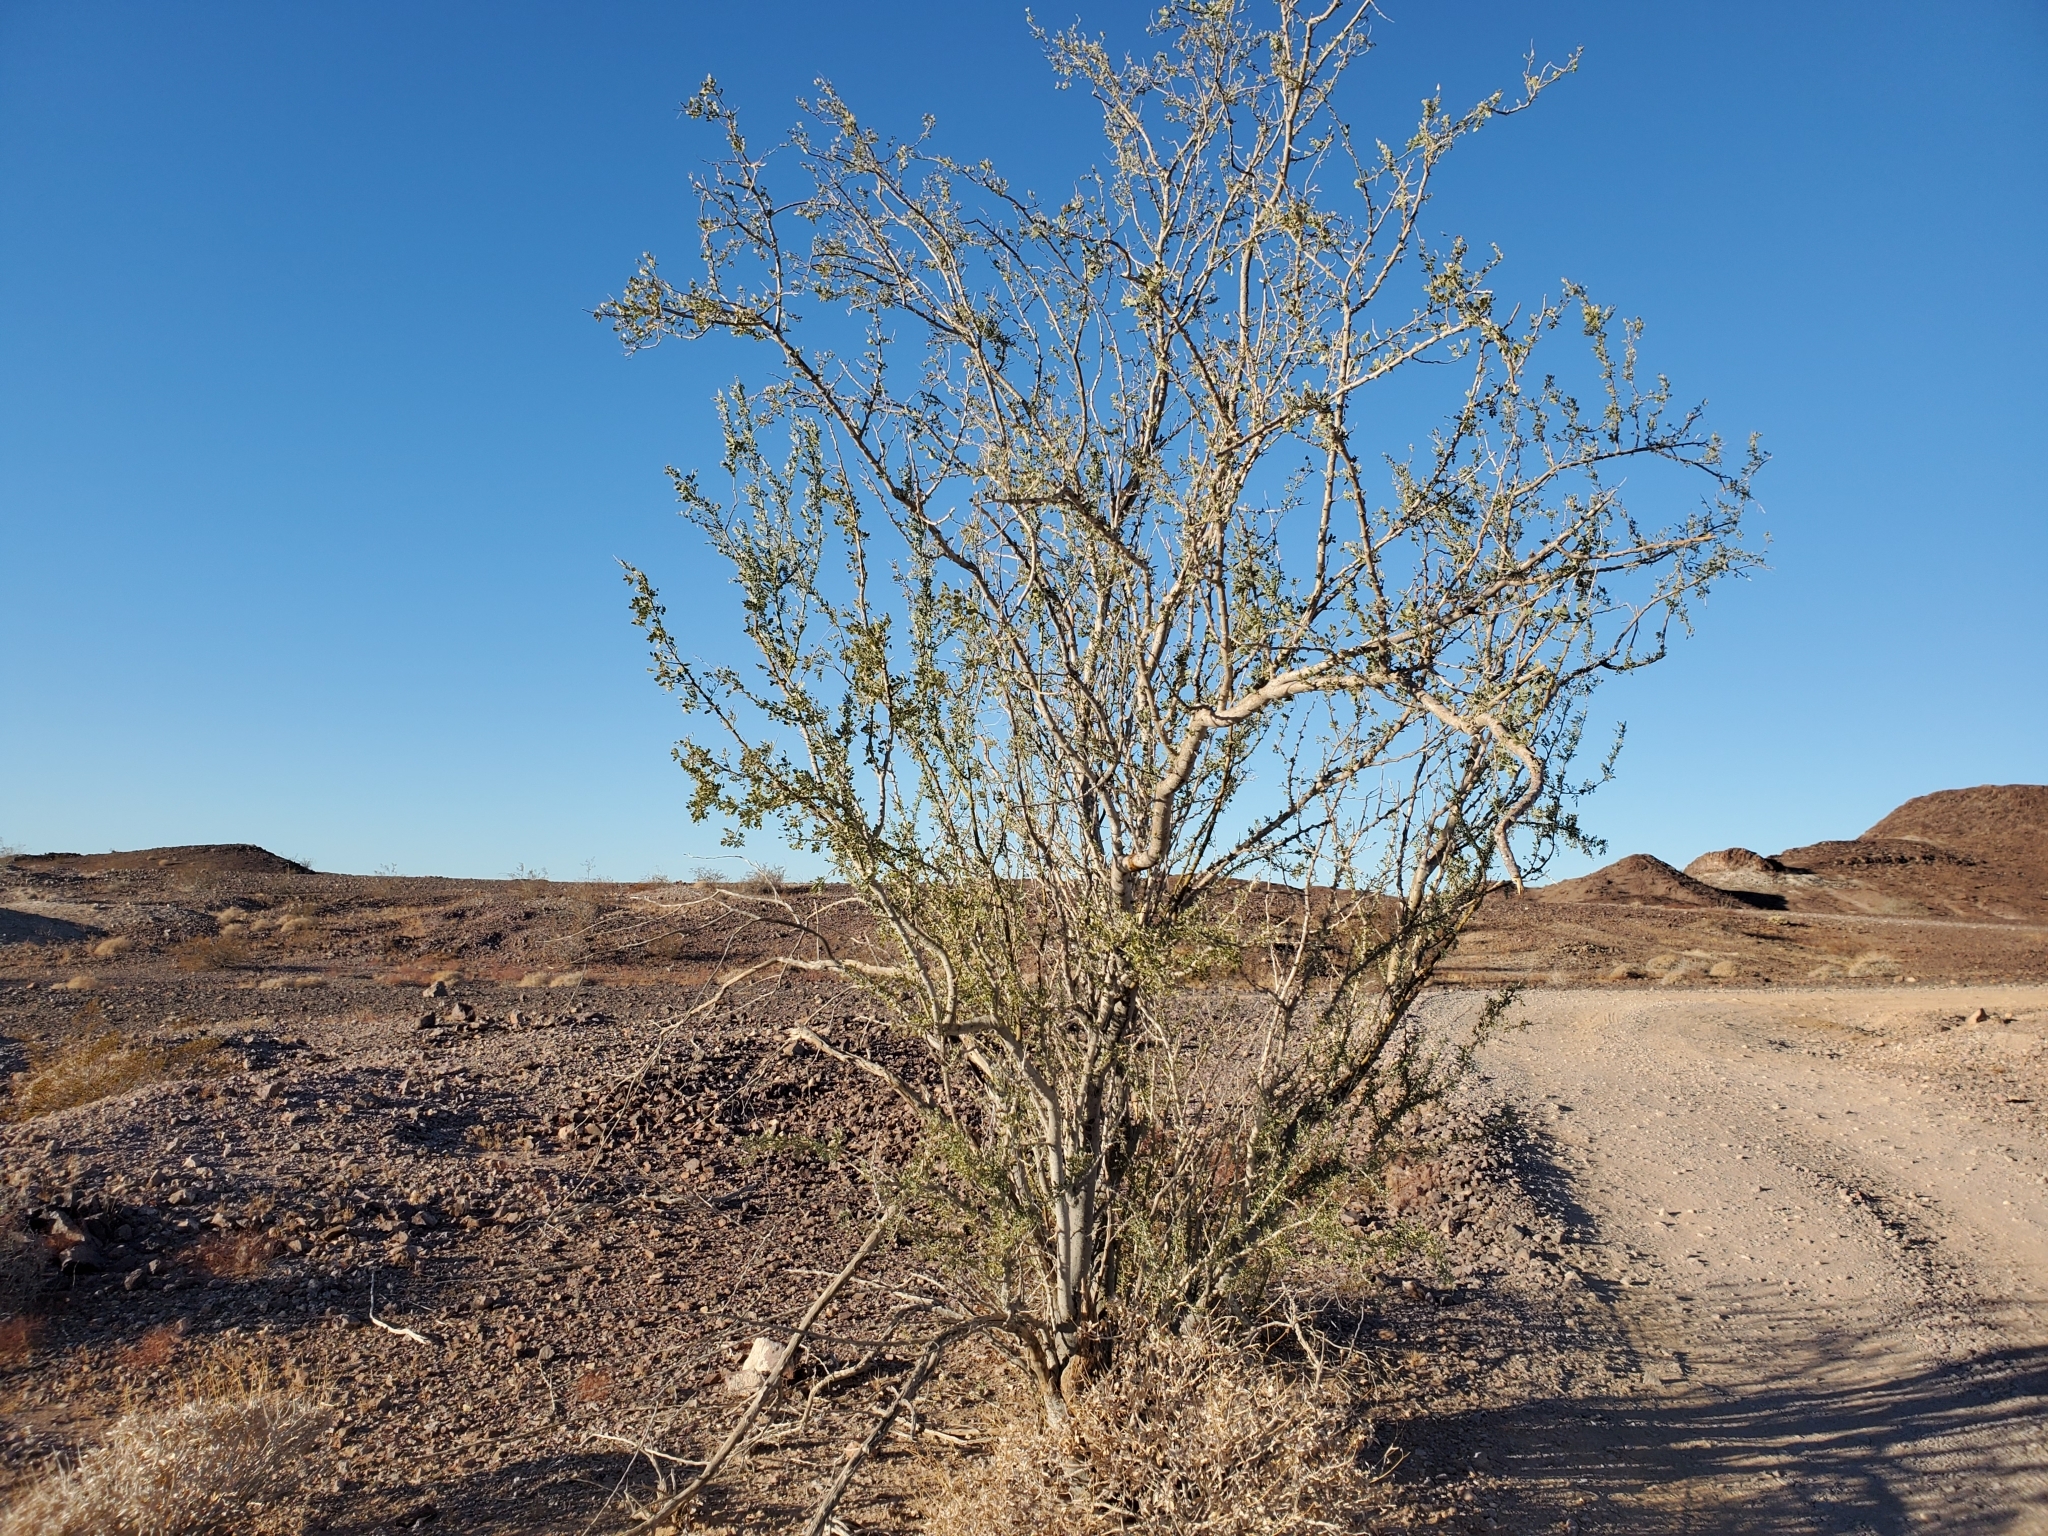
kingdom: Plantae
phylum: Tracheophyta
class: Magnoliopsida
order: Fabales
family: Fabaceae
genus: Olneya
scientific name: Olneya tesota
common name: Desert ironwood
